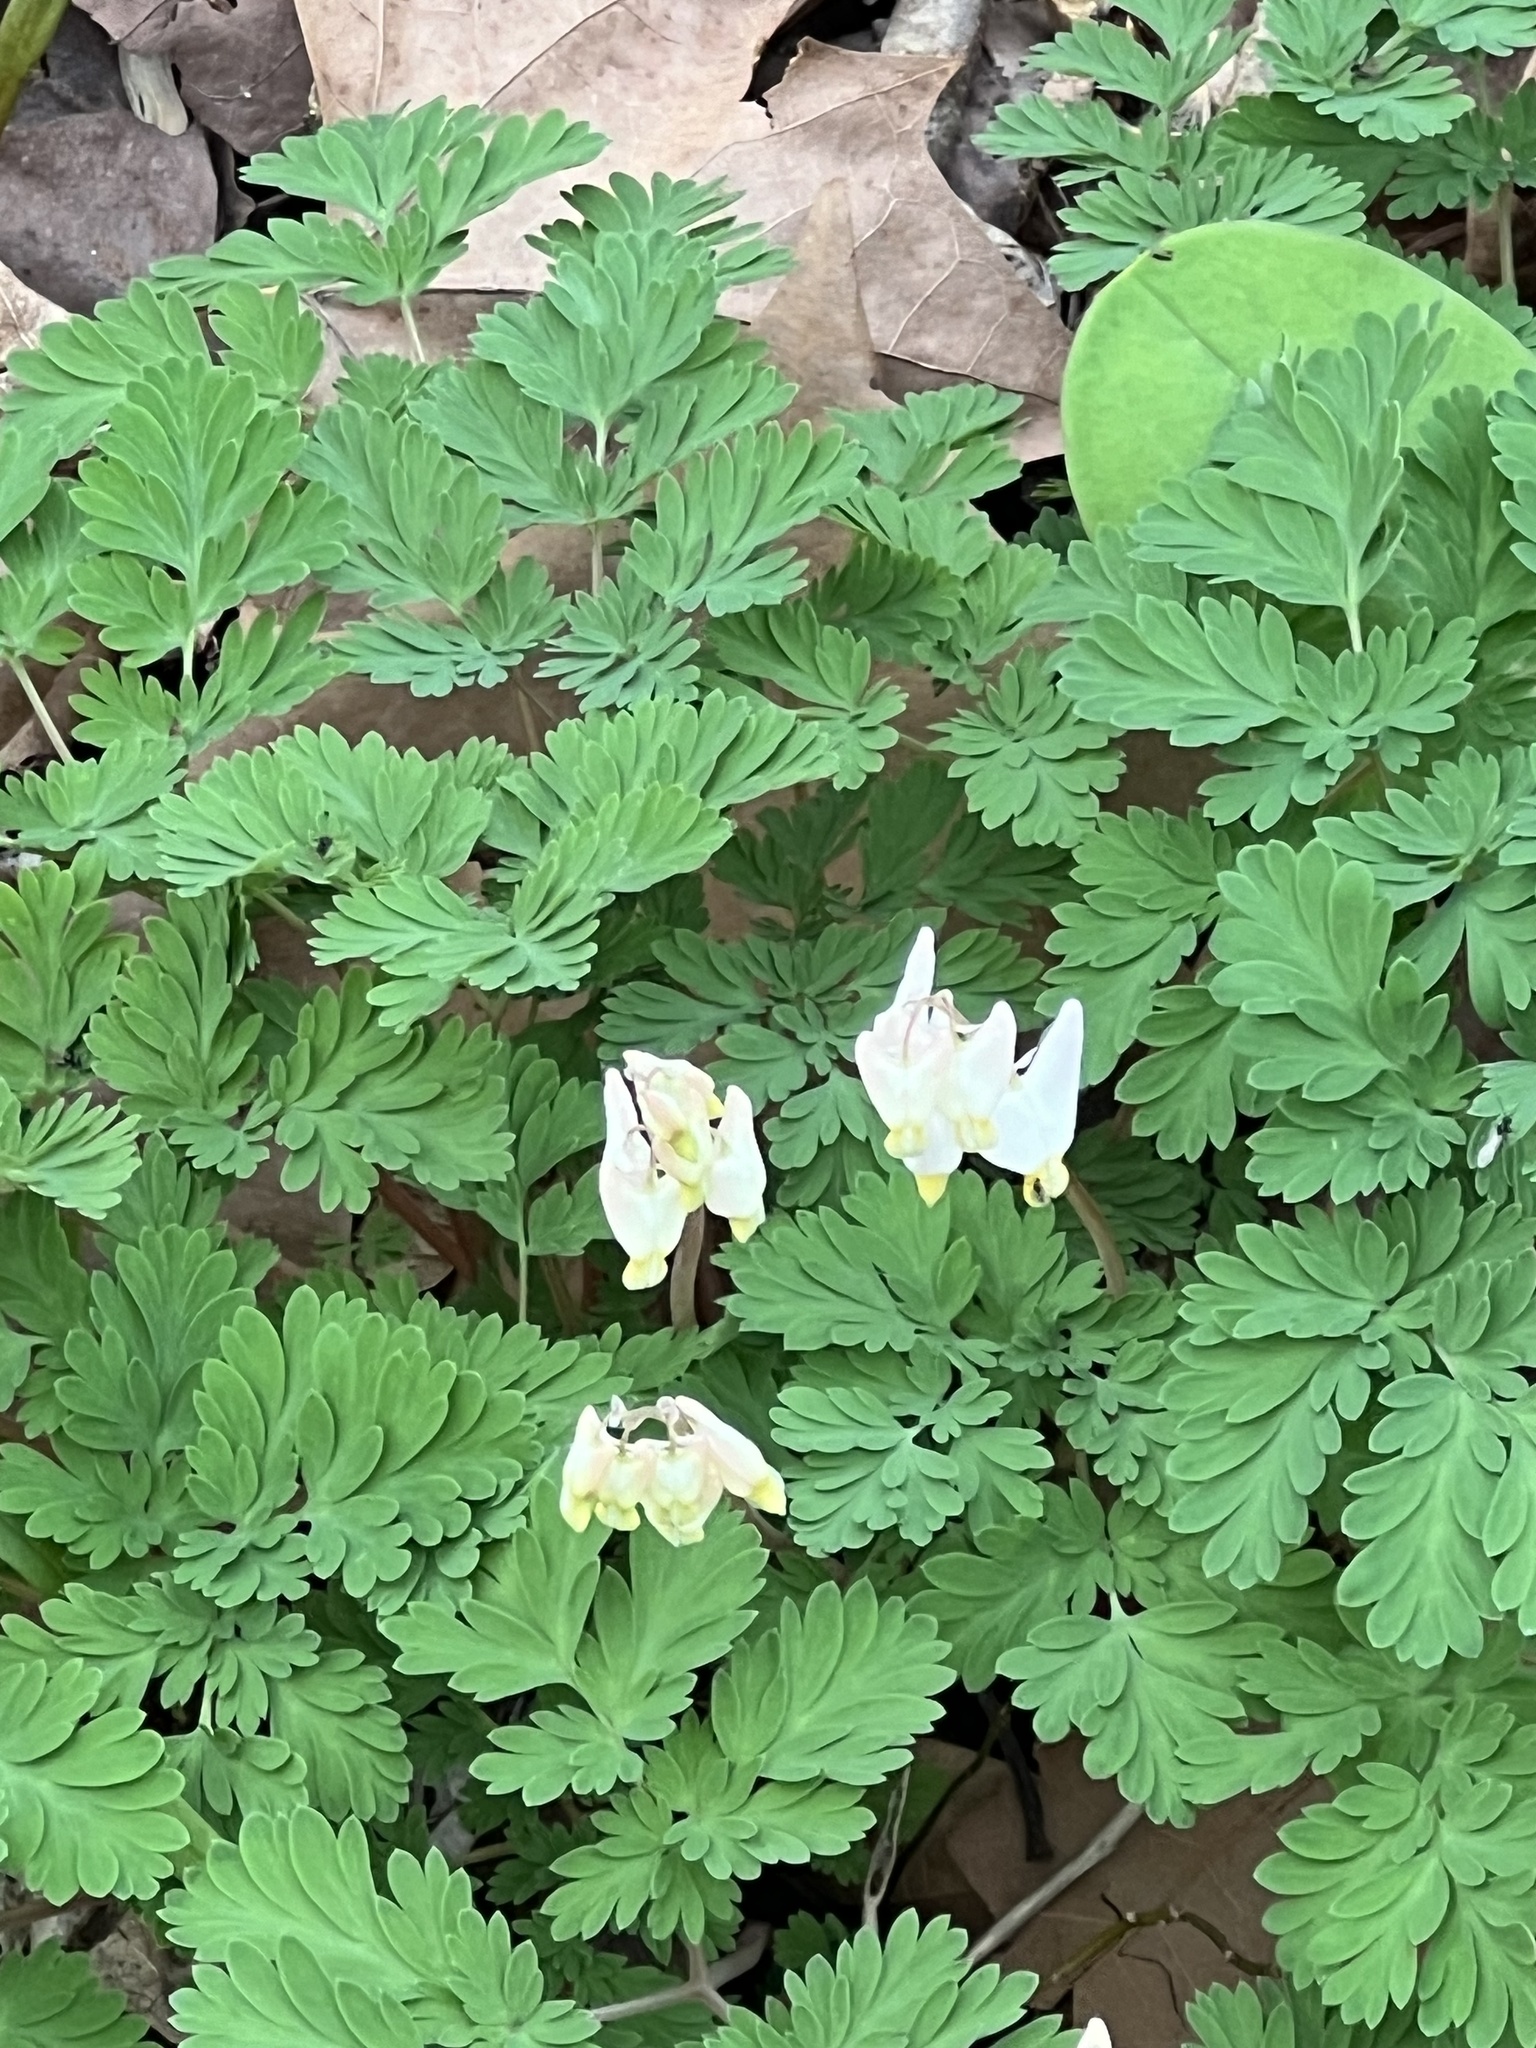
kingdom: Plantae
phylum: Tracheophyta
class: Magnoliopsida
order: Ranunculales
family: Papaveraceae
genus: Dicentra
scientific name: Dicentra cucullaria
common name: Dutchman's breeches
